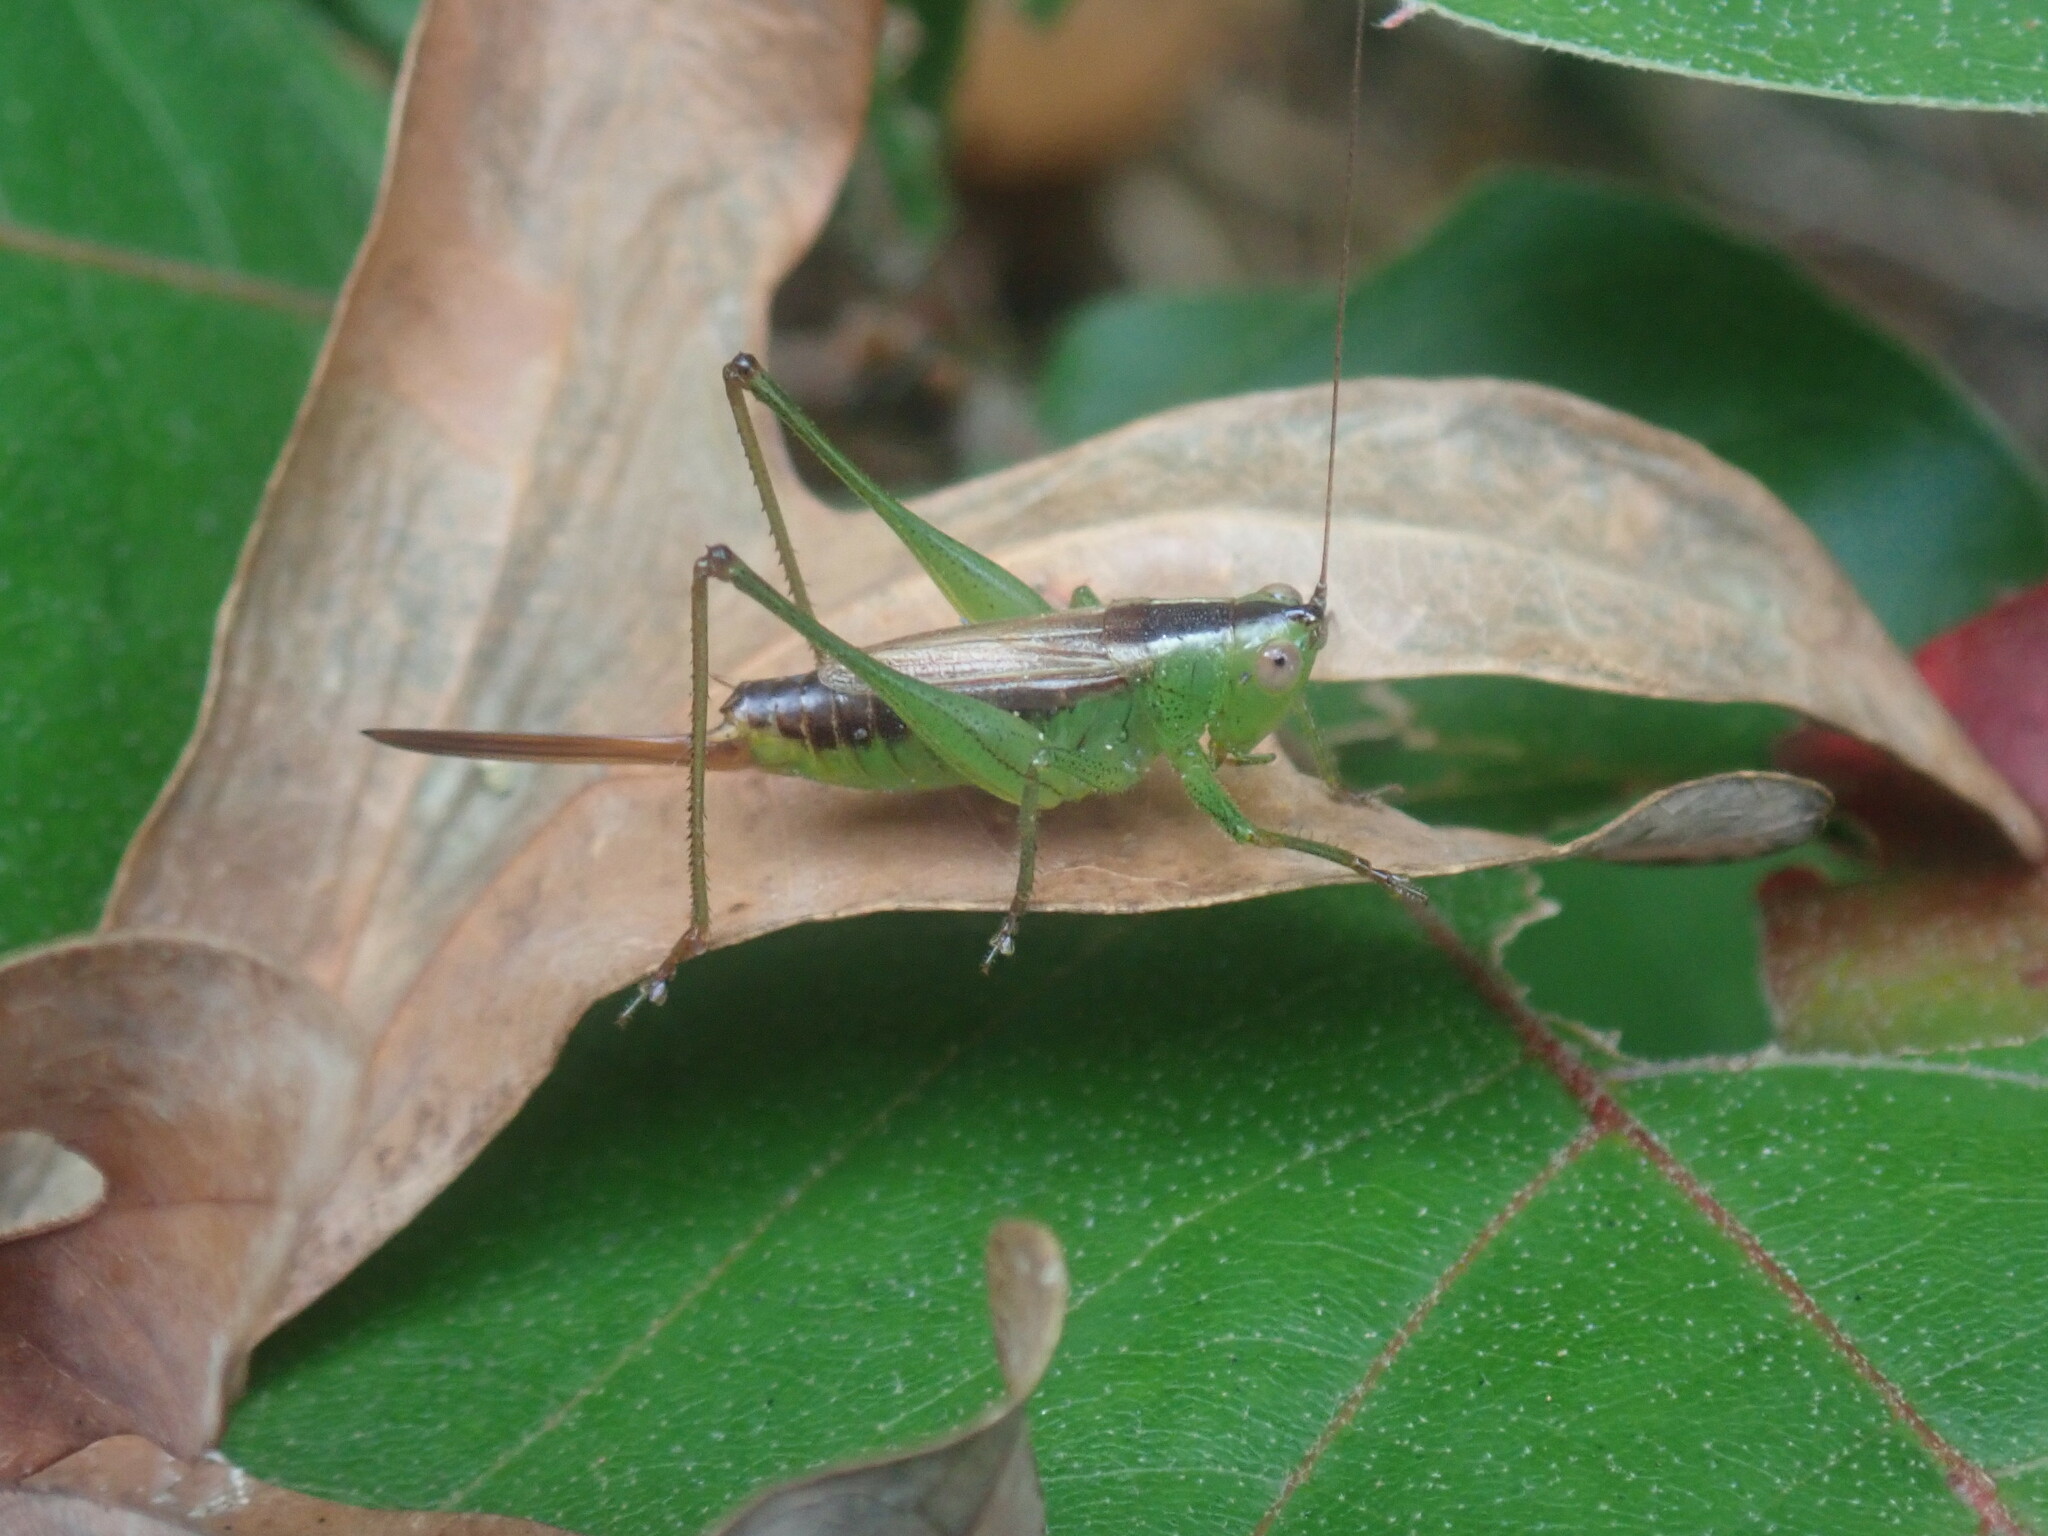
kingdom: Animalia
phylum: Arthropoda
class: Insecta
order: Orthoptera
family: Tettigoniidae
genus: Conocephalus
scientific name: Conocephalus brevipennis
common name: Short-winged meadow katydid
